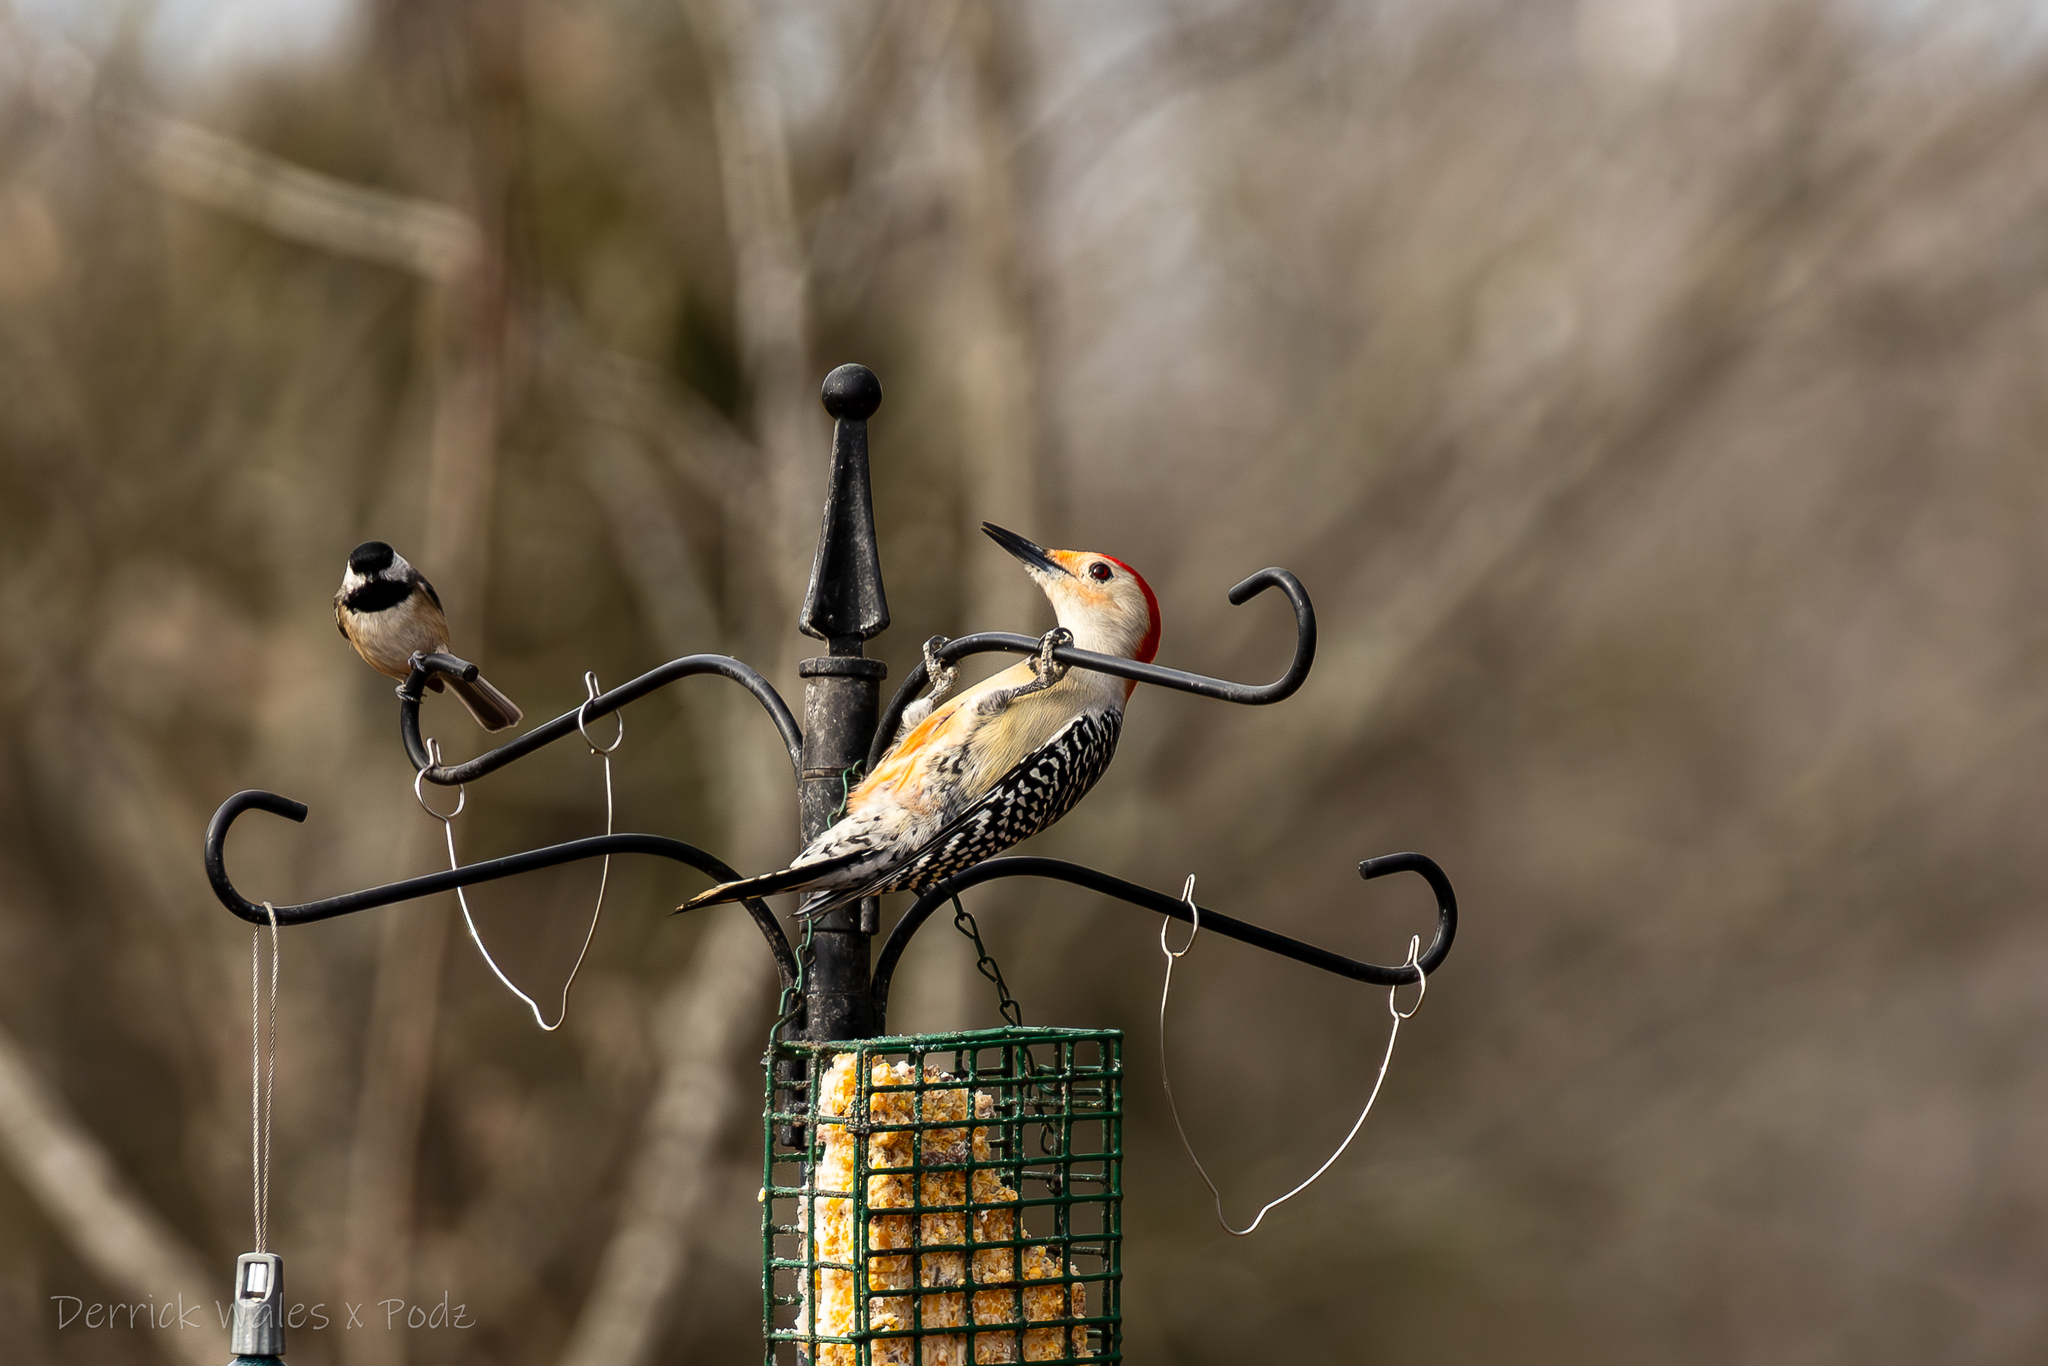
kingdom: Animalia
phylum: Chordata
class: Aves
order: Piciformes
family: Picidae
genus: Melanerpes
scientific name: Melanerpes carolinus
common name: Red-bellied woodpecker
